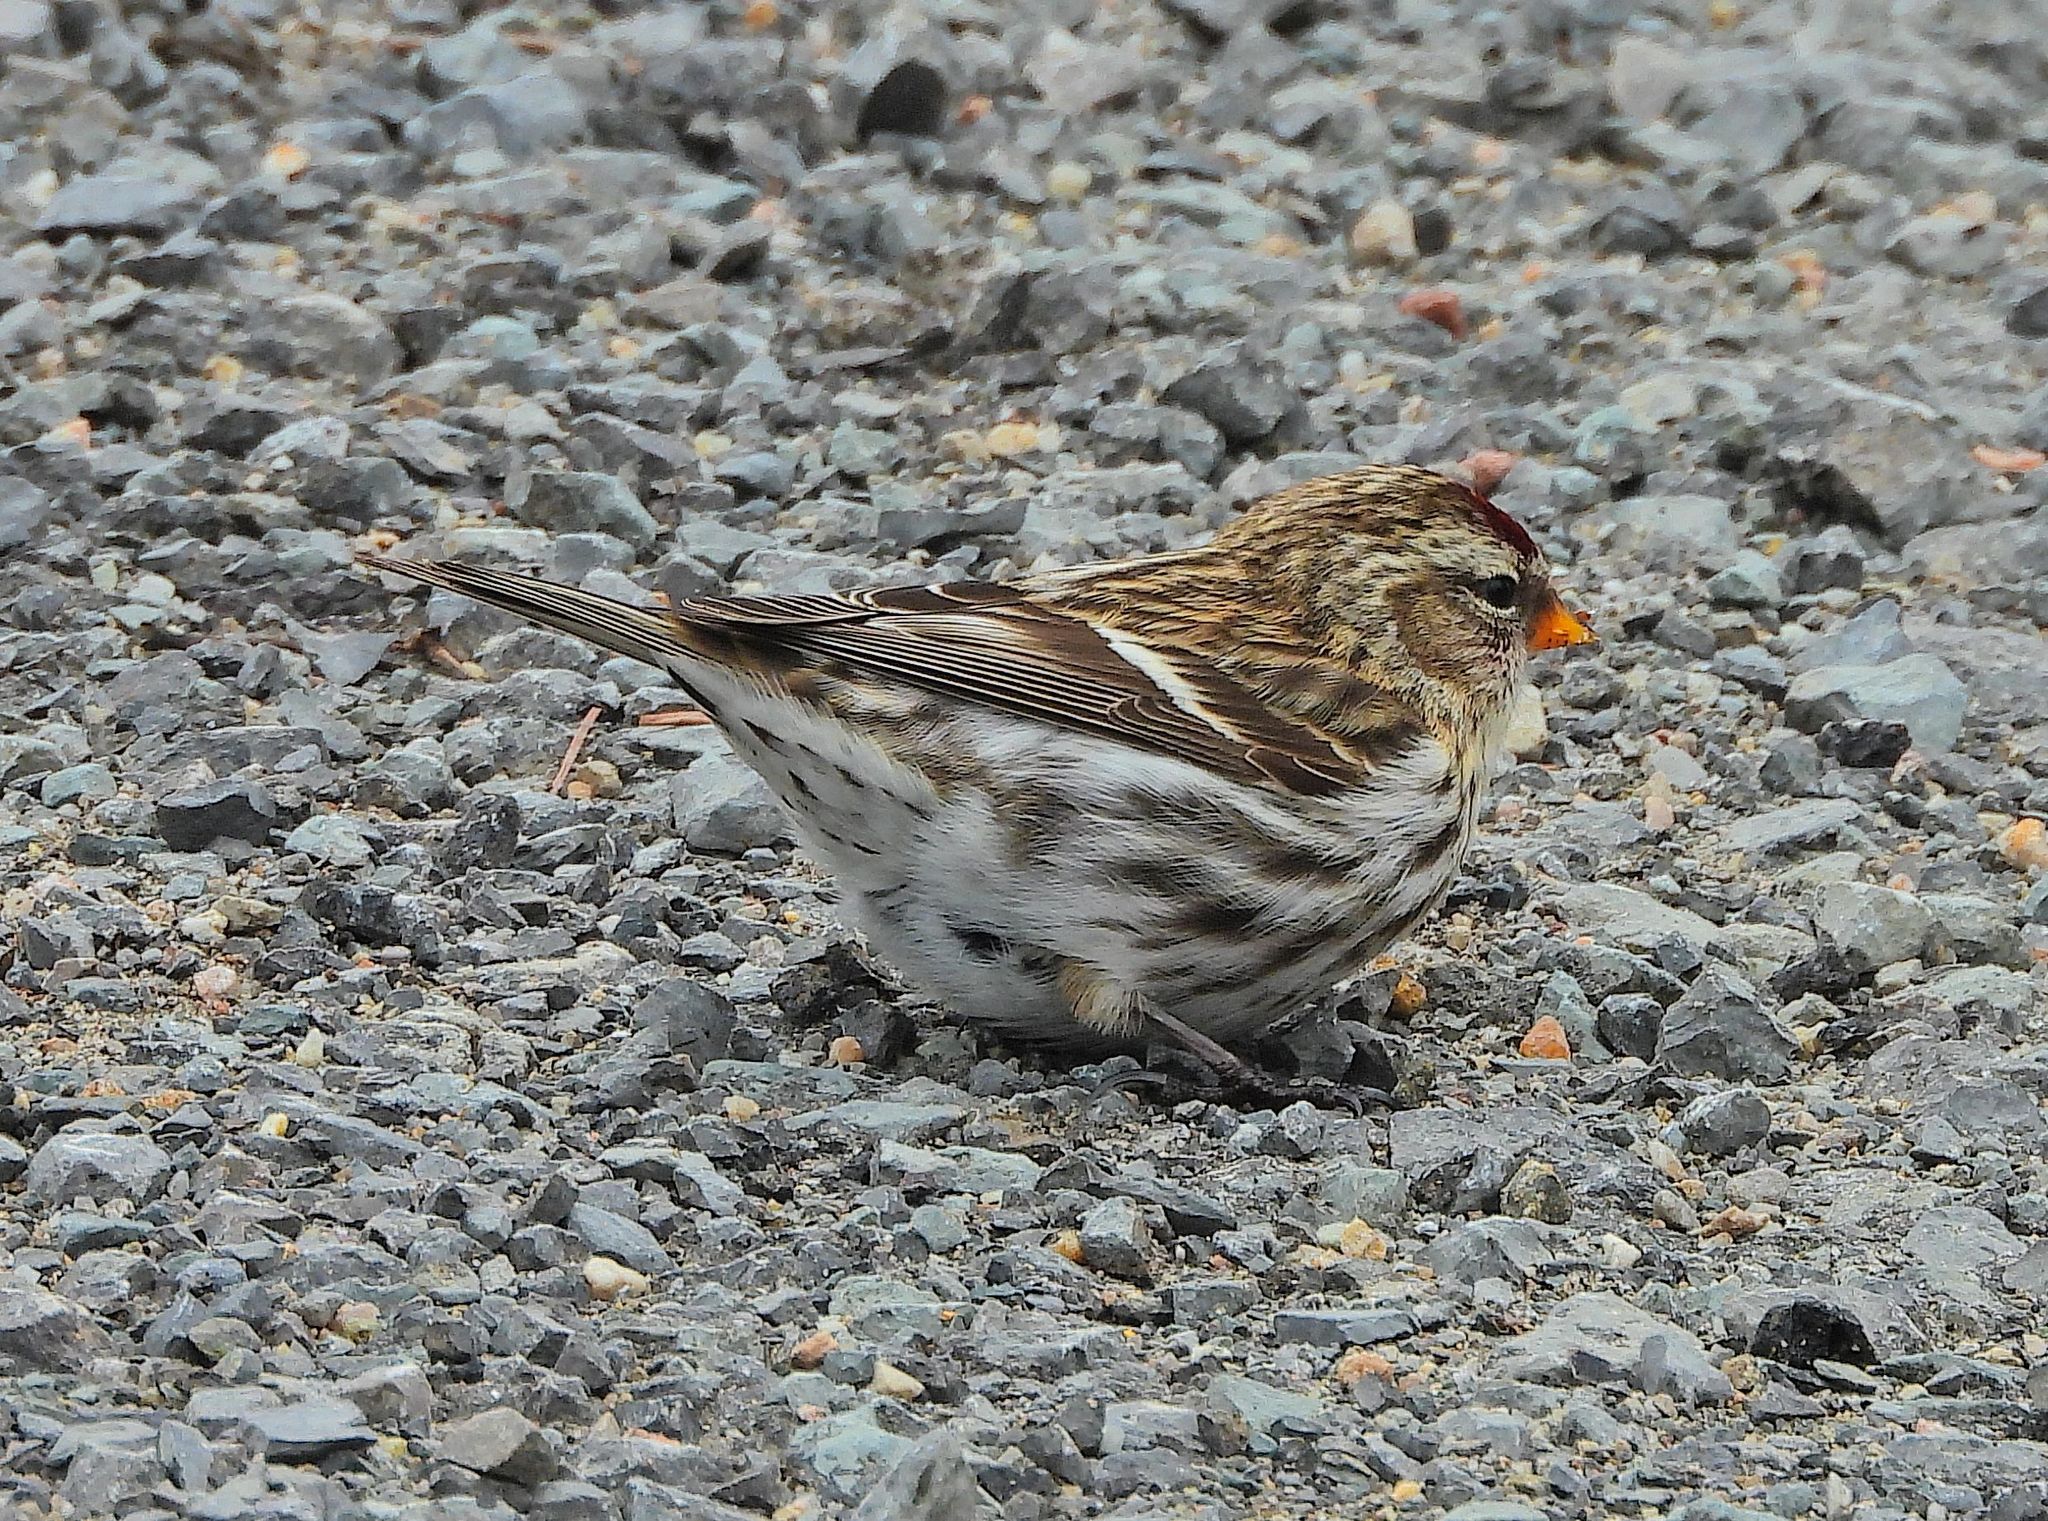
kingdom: Animalia
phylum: Chordata
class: Aves
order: Passeriformes
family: Fringillidae
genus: Acanthis
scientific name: Acanthis flammea
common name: Common redpoll
